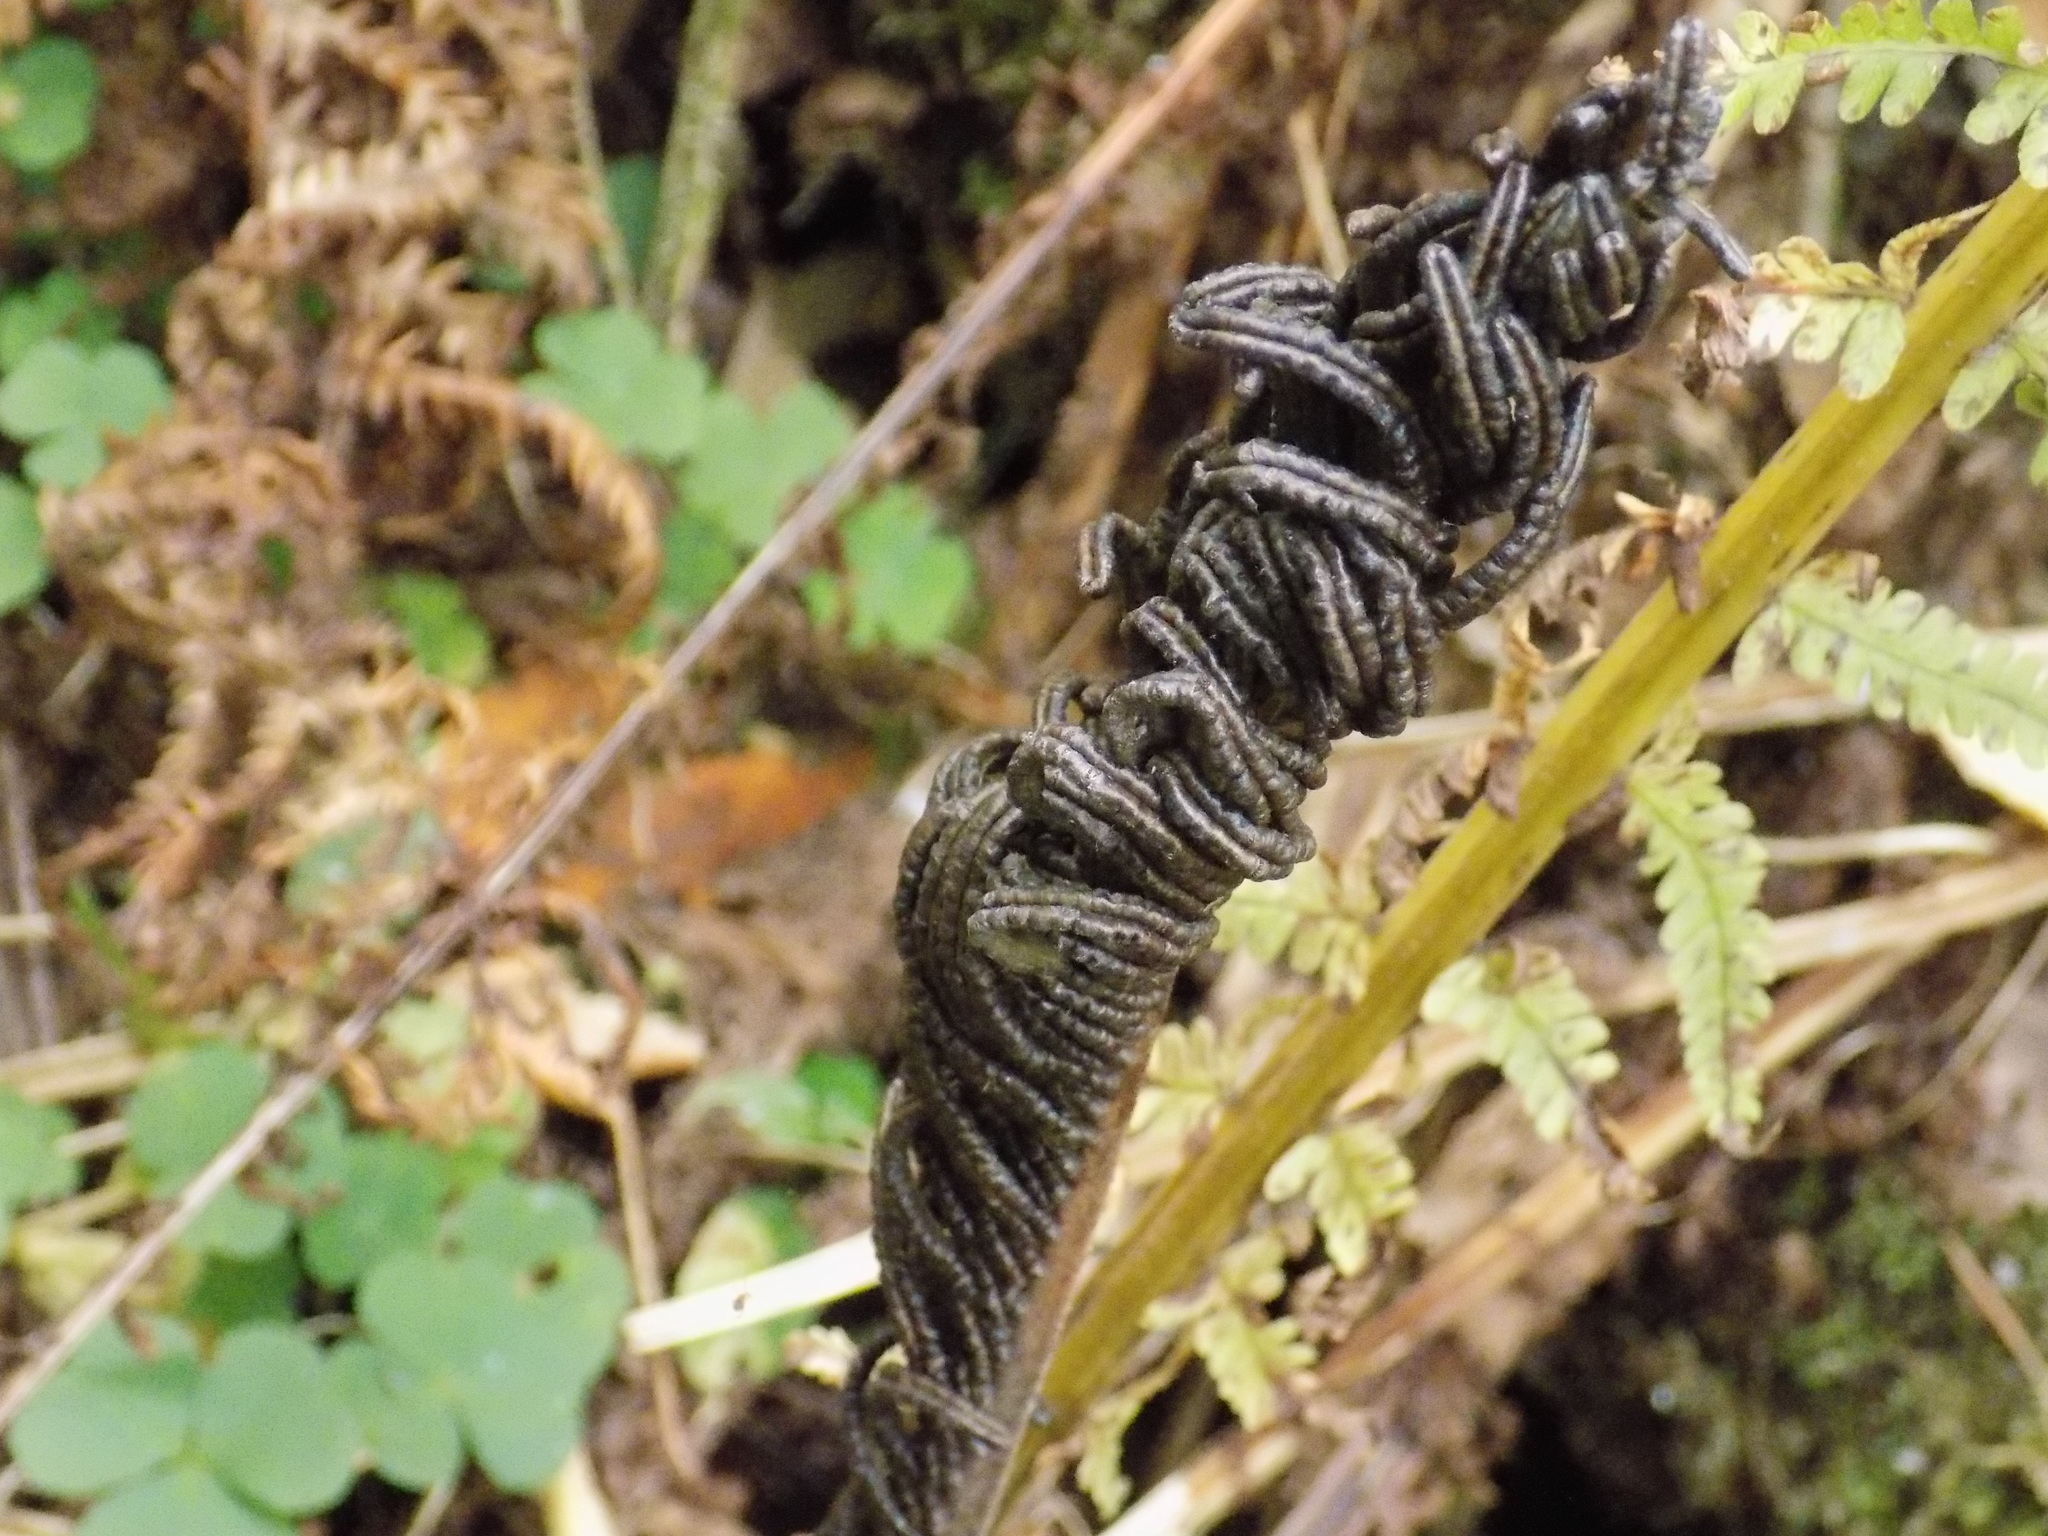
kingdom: Plantae
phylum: Tracheophyta
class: Polypodiopsida
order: Polypodiales
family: Onocleaceae
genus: Matteuccia
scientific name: Matteuccia struthiopteris
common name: Ostrich fern
